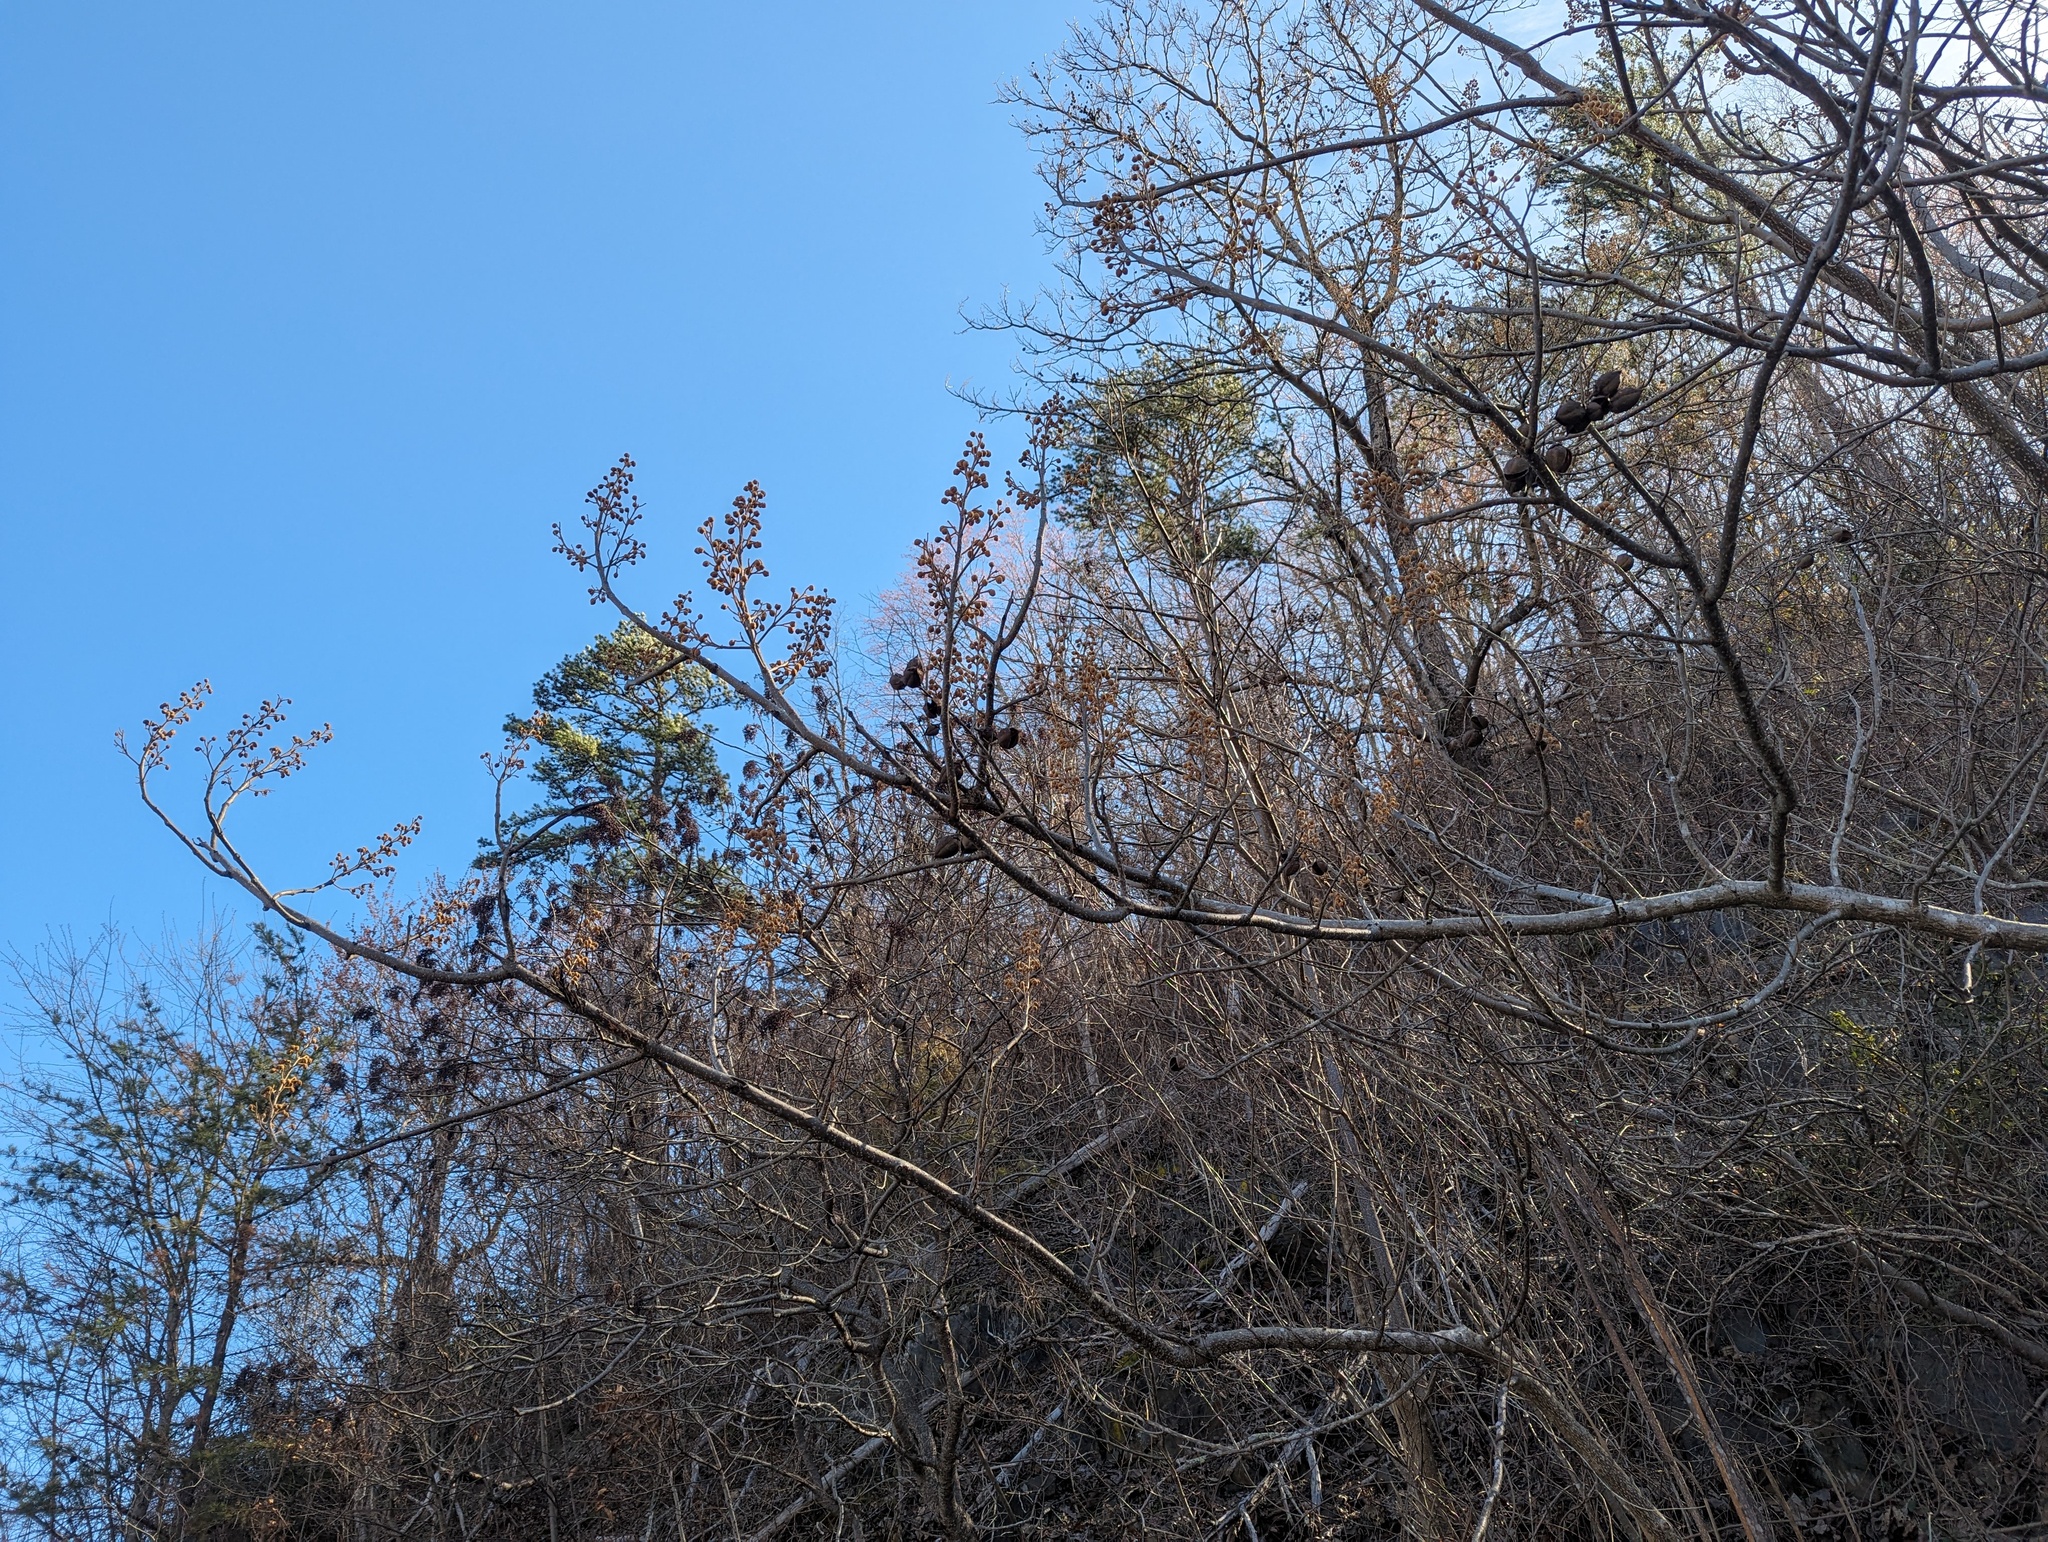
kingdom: Plantae
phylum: Tracheophyta
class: Magnoliopsida
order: Lamiales
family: Paulowniaceae
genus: Paulownia
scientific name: Paulownia tomentosa
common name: Foxglove-tree
